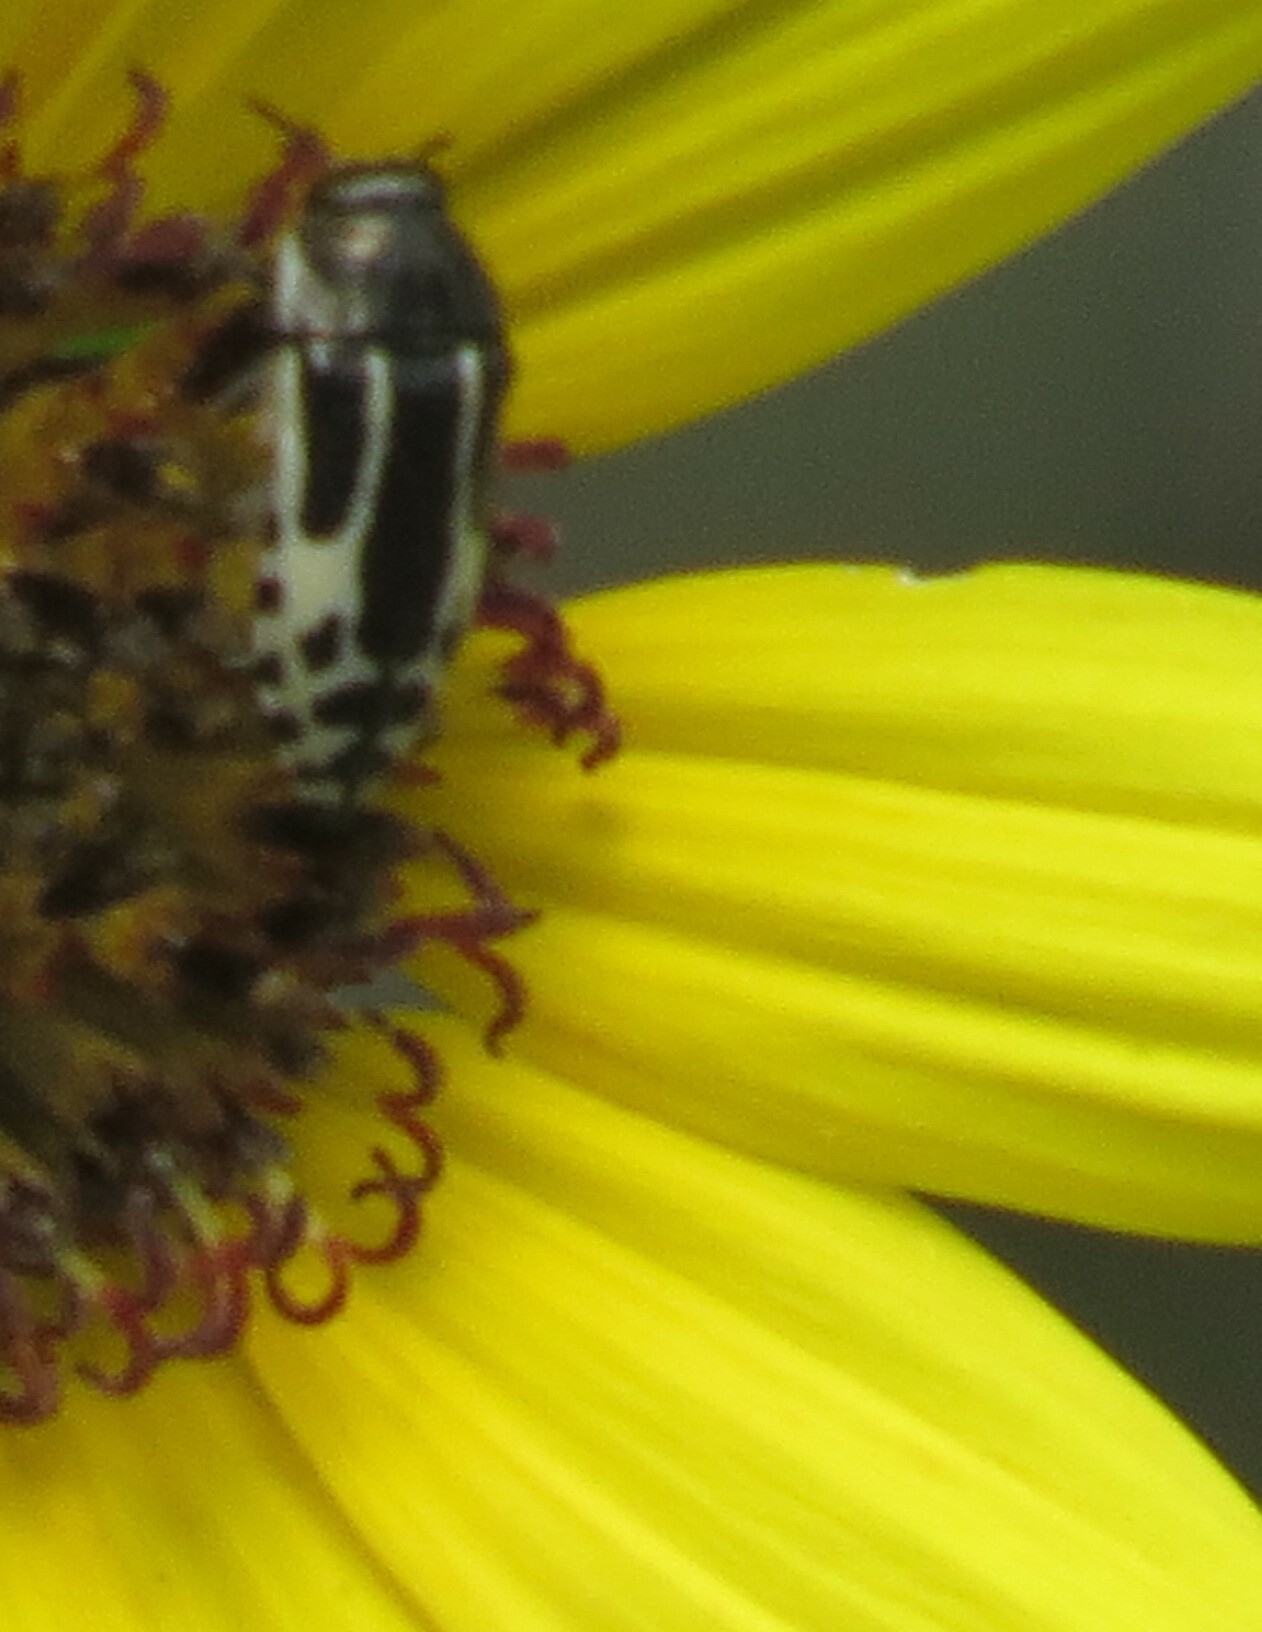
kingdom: Animalia
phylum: Arthropoda
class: Insecta
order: Coleoptera
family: Buprestidae
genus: Acmaeodera
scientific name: Acmaeodera scalaris
